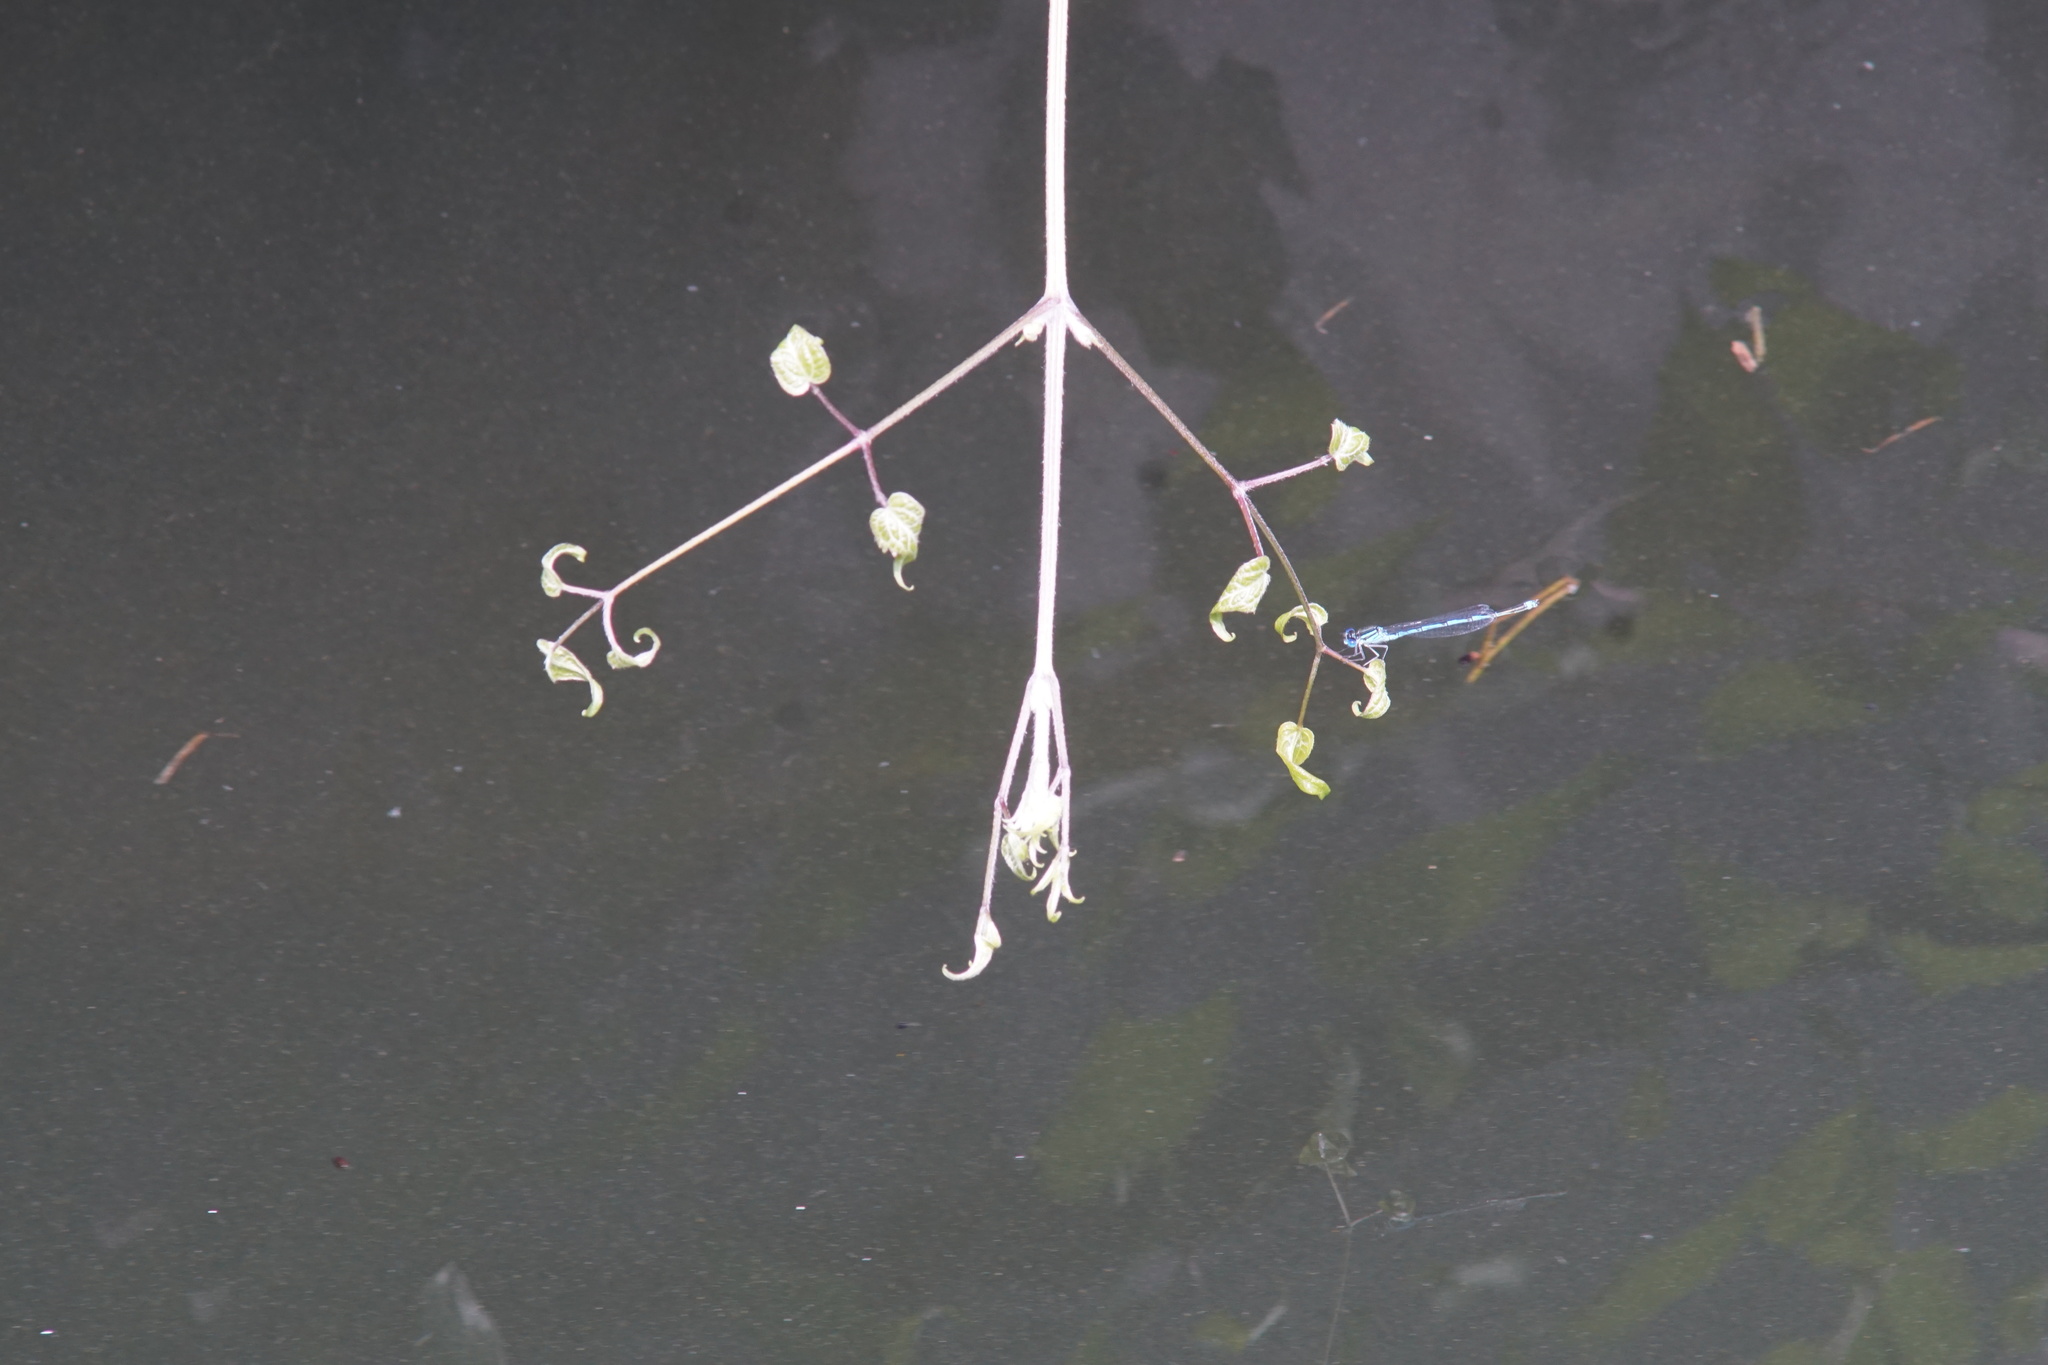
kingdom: Animalia
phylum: Arthropoda
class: Insecta
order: Odonata
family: Coenagrionidae
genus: Erythromma
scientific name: Erythromma lindenii
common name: Blue-eye
